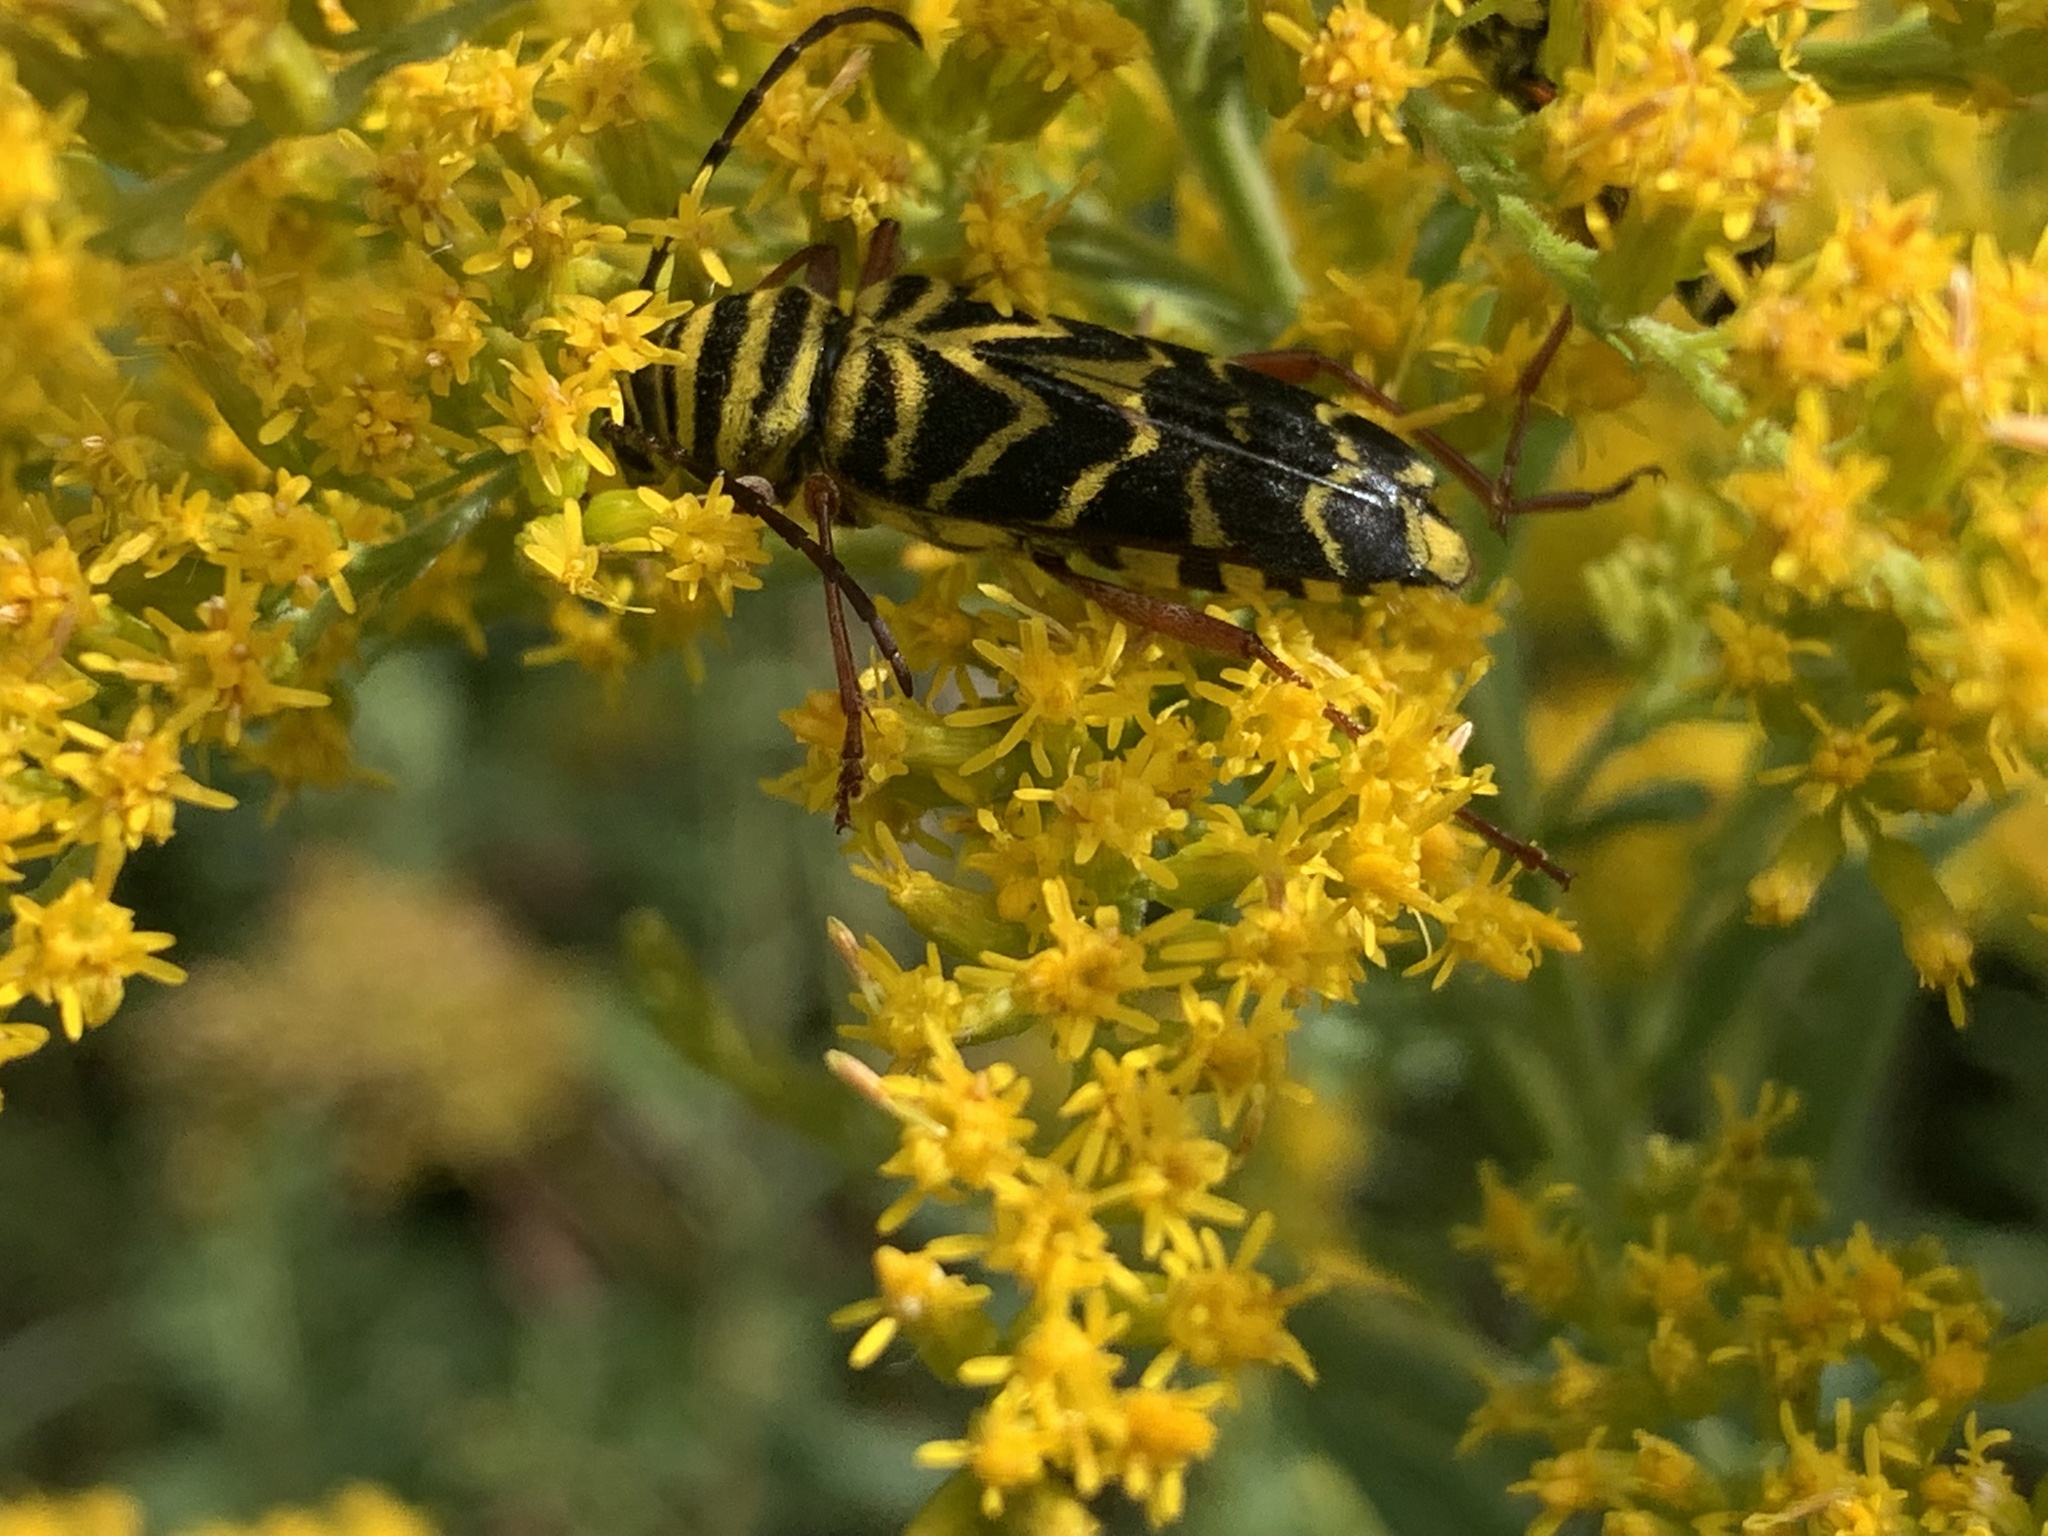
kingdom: Animalia
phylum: Arthropoda
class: Insecta
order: Coleoptera
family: Cerambycidae
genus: Megacyllene
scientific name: Megacyllene robiniae
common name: Locust borer
